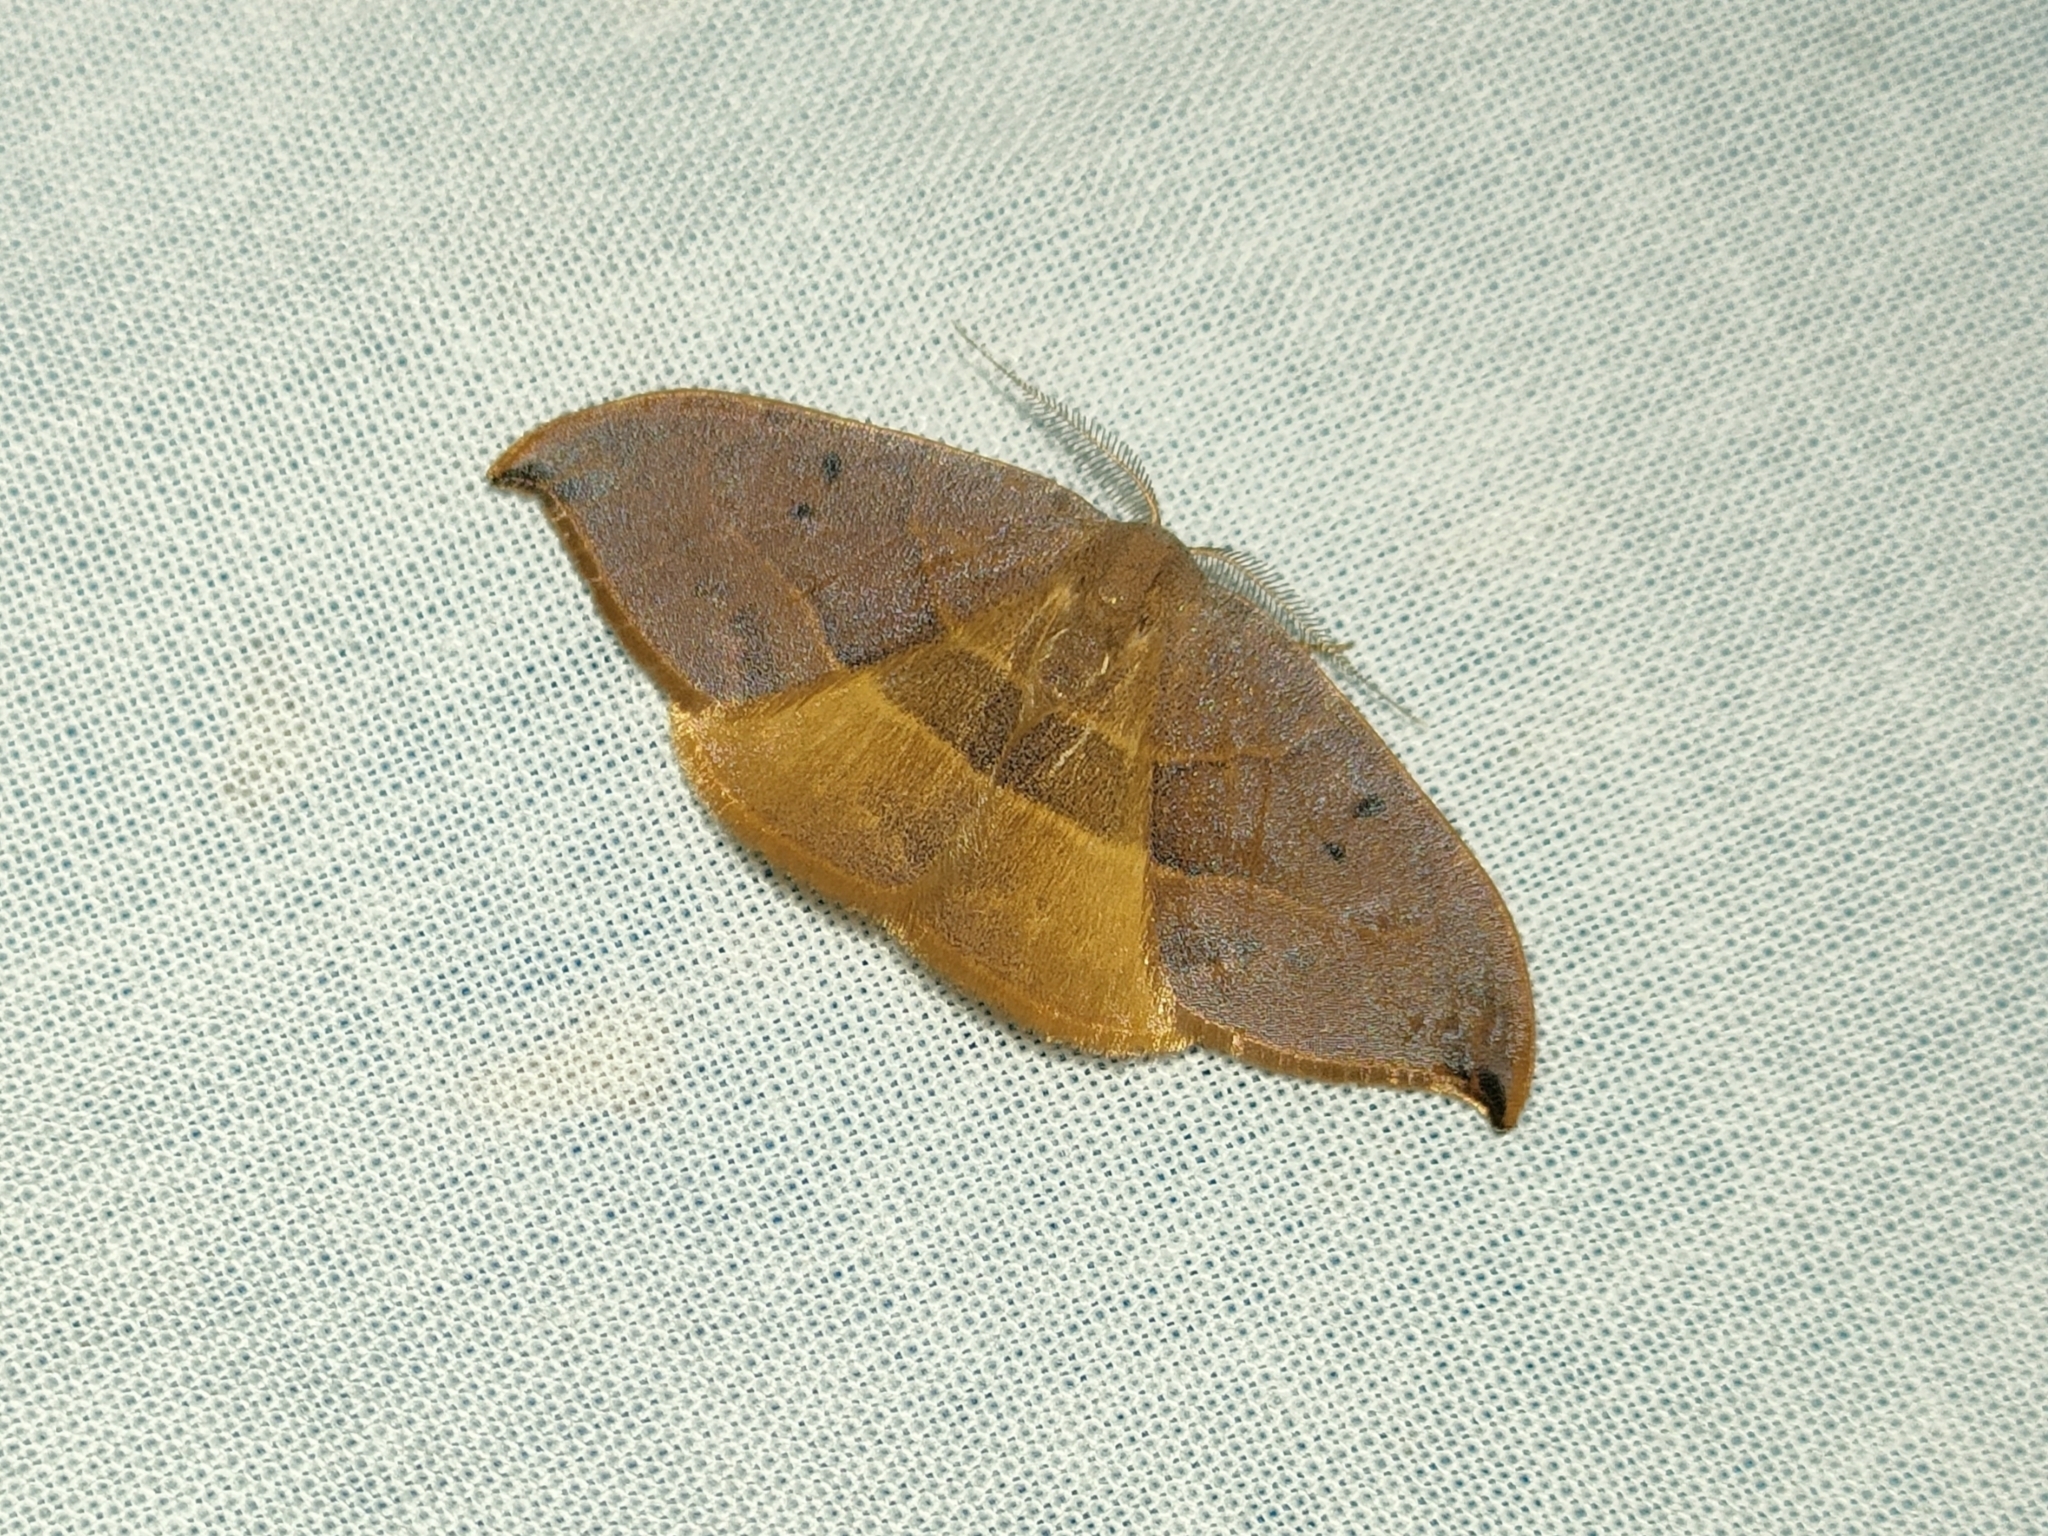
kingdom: Animalia
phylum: Arthropoda
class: Insecta
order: Lepidoptera
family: Drepanidae
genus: Watsonalla
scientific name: Watsonalla uncinula
